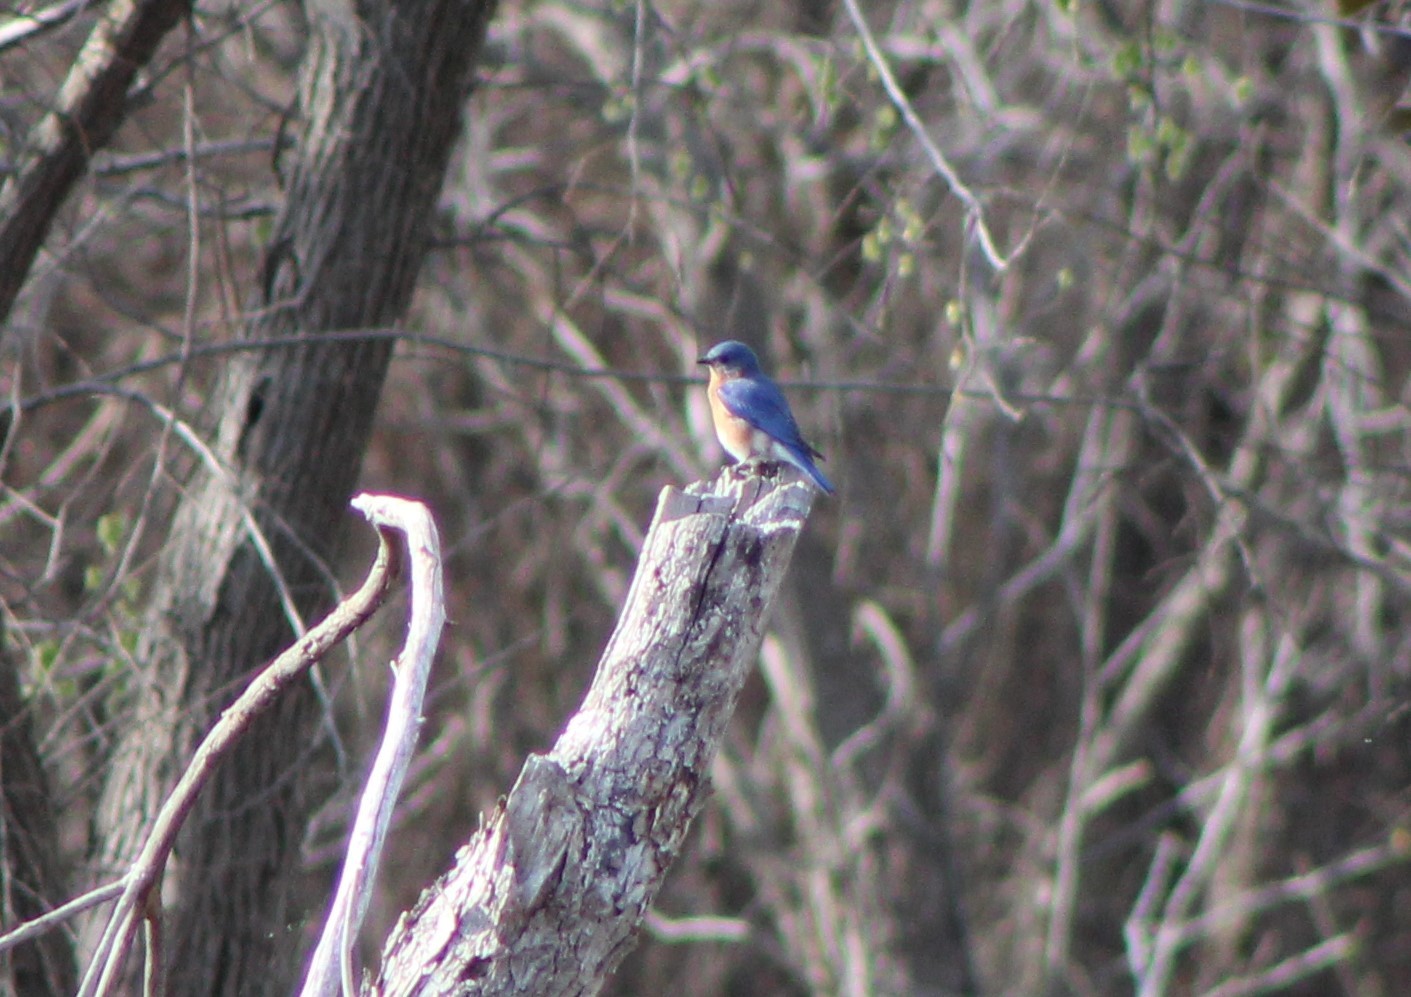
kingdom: Animalia
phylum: Chordata
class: Aves
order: Passeriformes
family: Turdidae
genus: Sialia
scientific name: Sialia sialis
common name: Eastern bluebird
